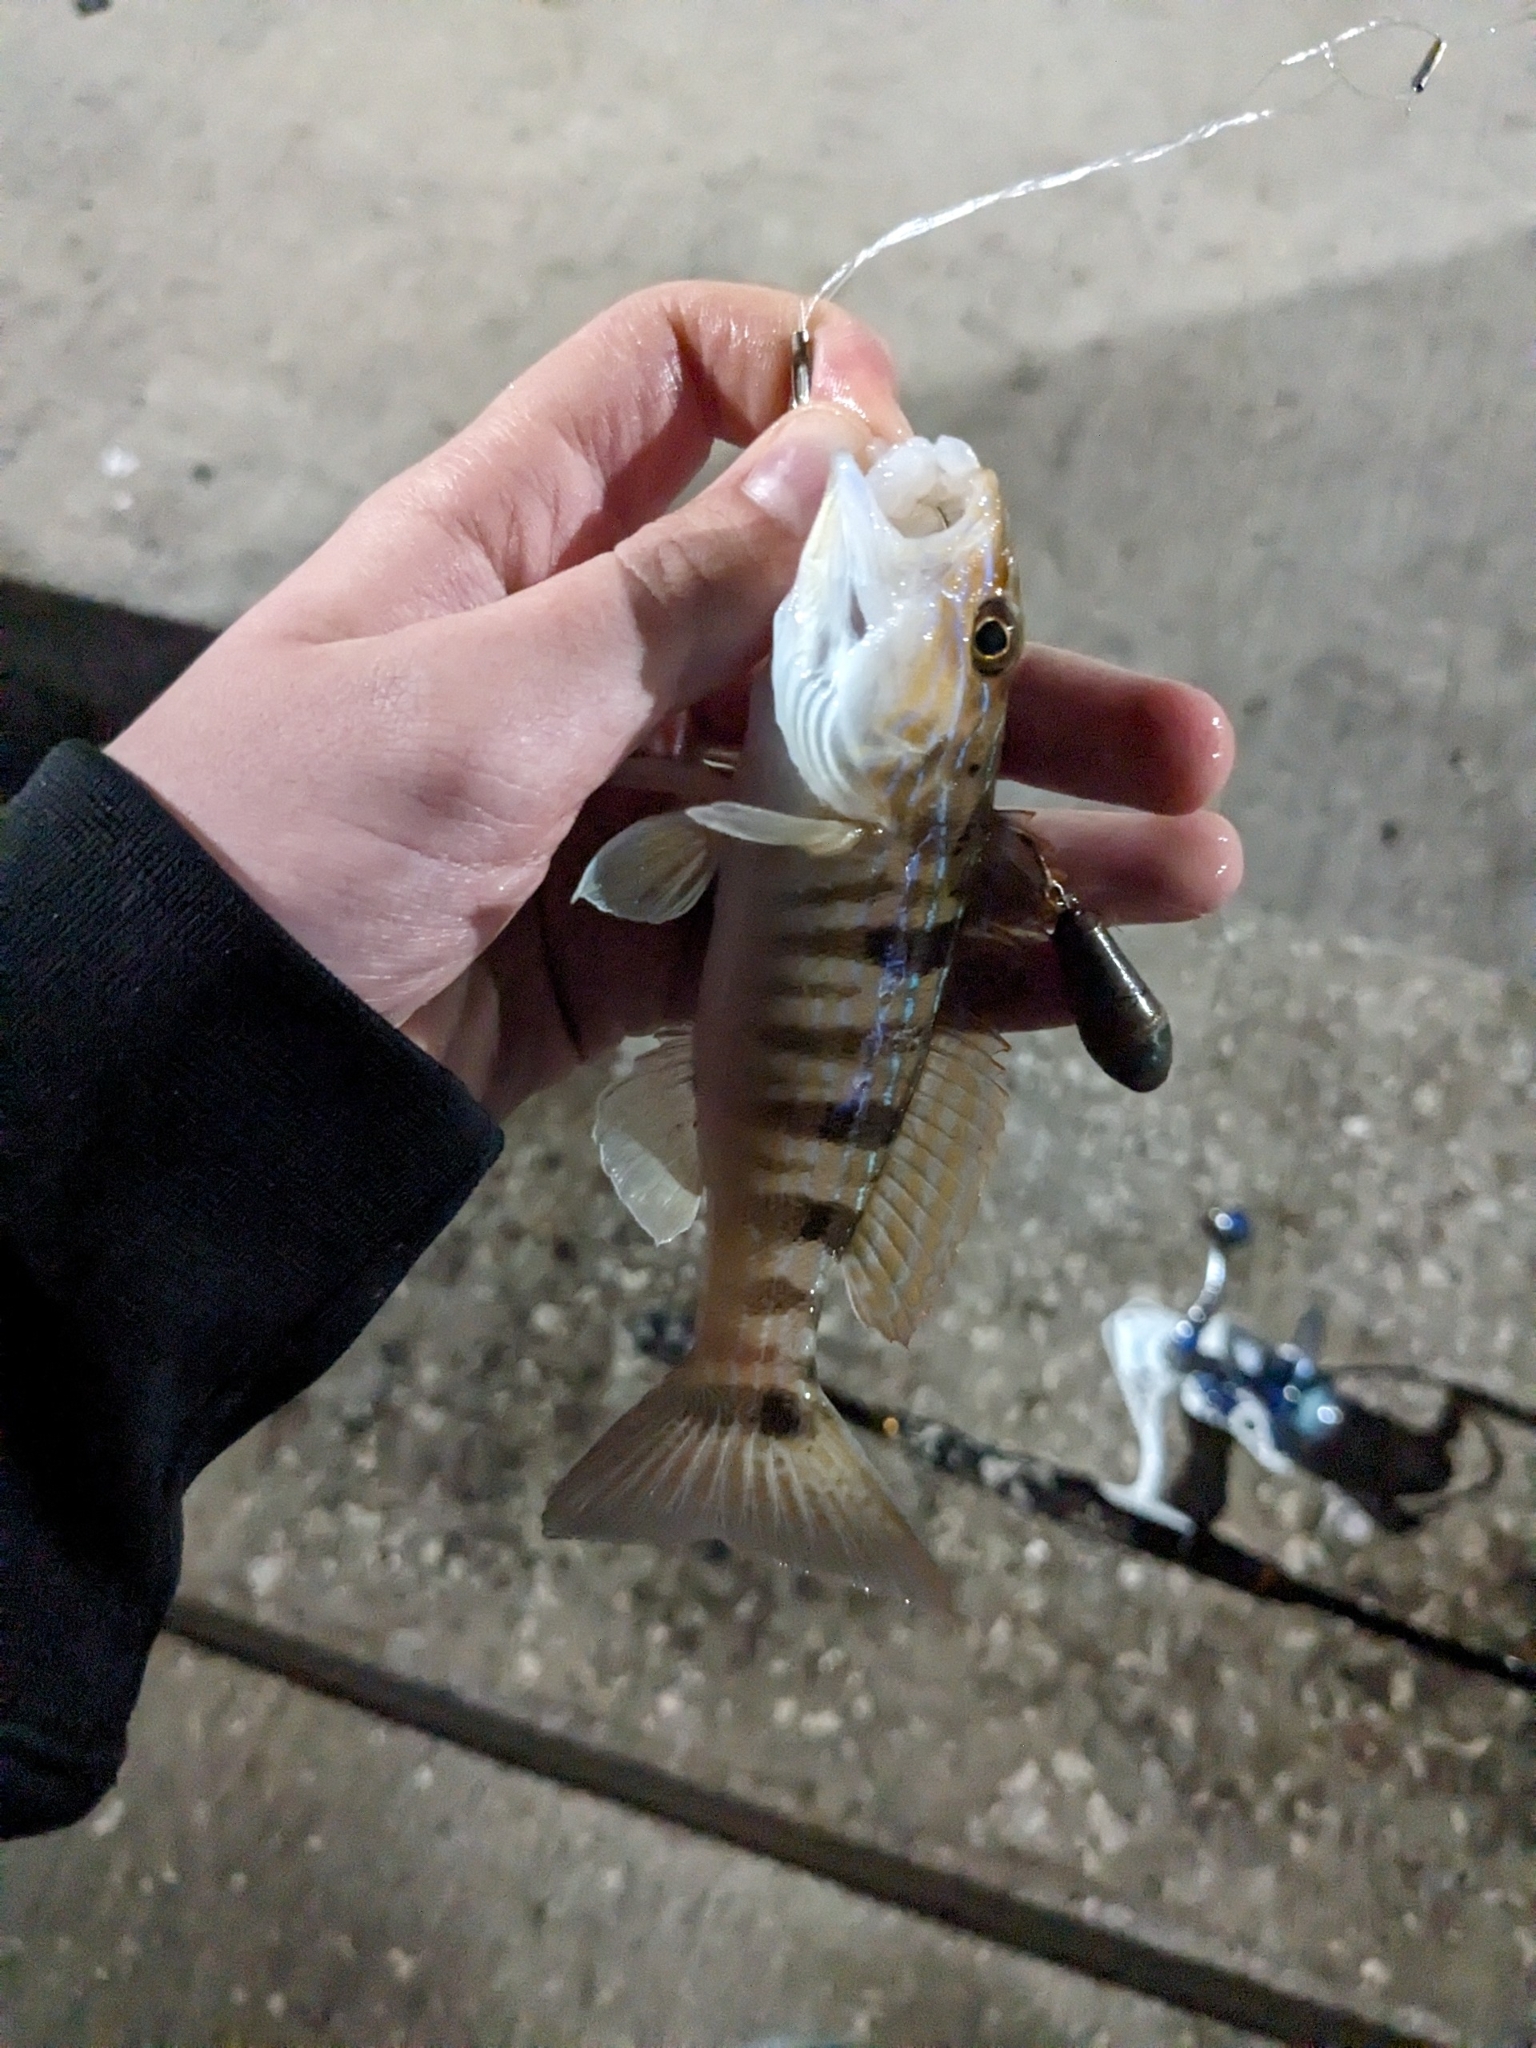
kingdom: Animalia
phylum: Chordata
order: Perciformes
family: Serranidae
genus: Diplectrum
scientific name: Diplectrum formosum
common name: Sand perch
